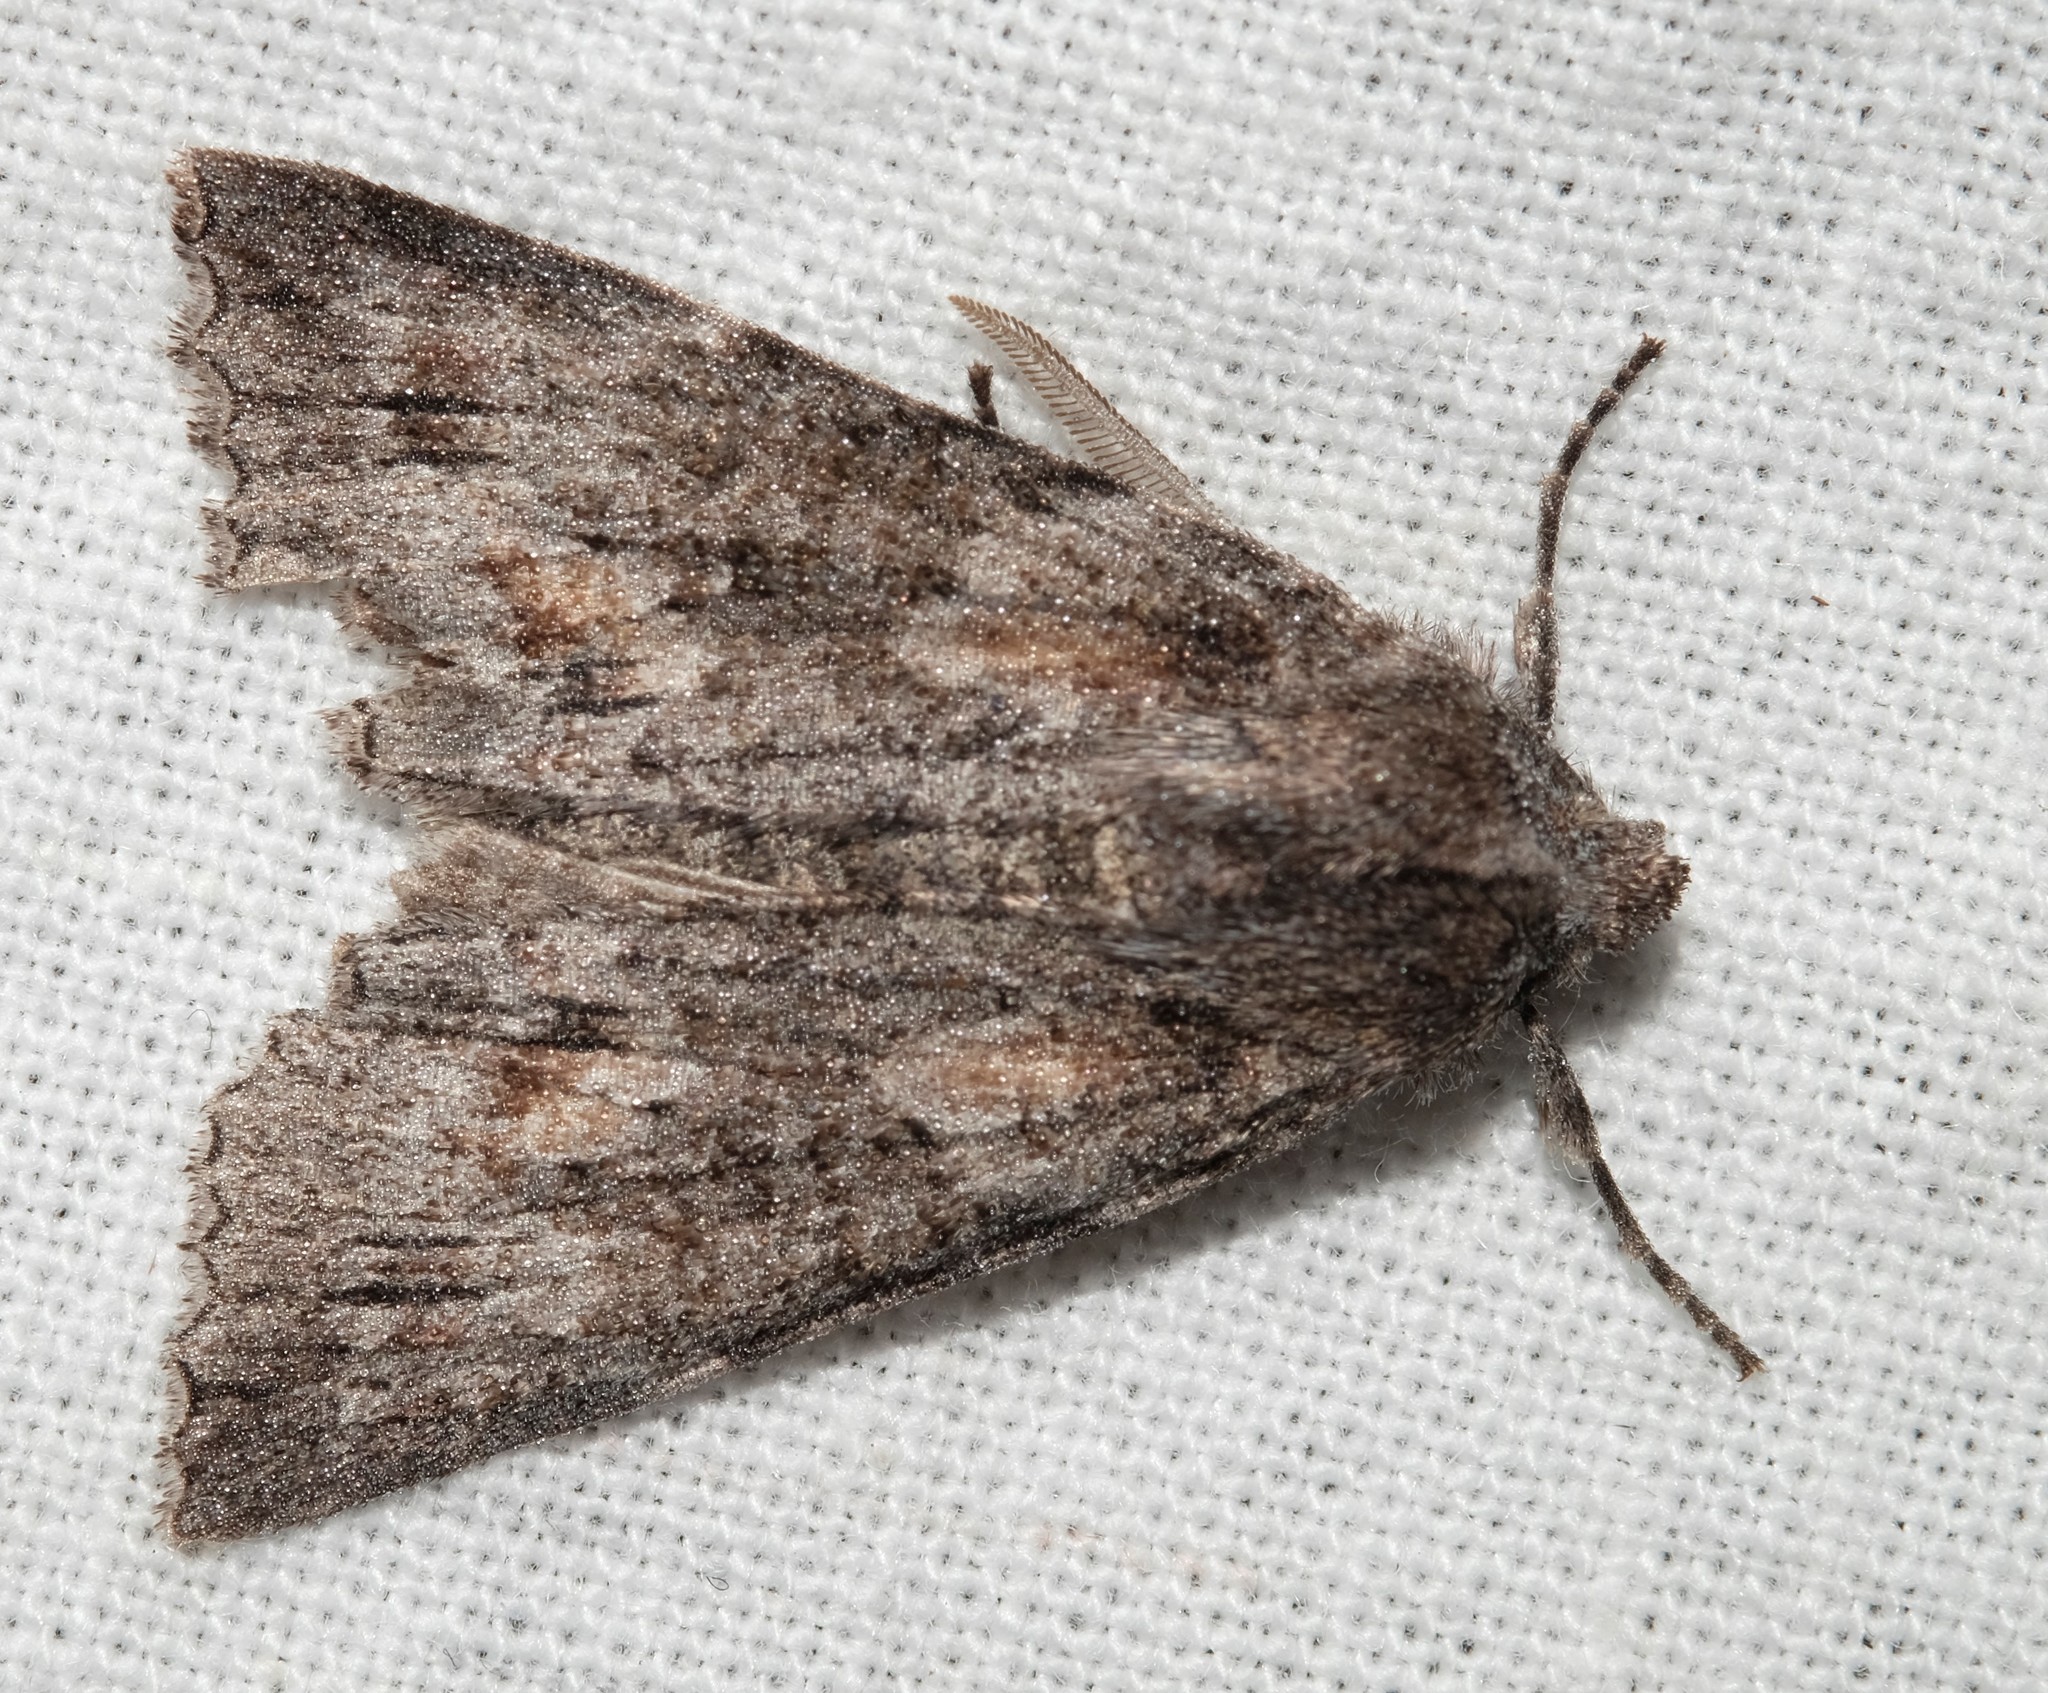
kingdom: Animalia
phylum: Arthropoda
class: Insecta
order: Lepidoptera
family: Geometridae
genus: Nisista
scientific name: Nisista galearia
